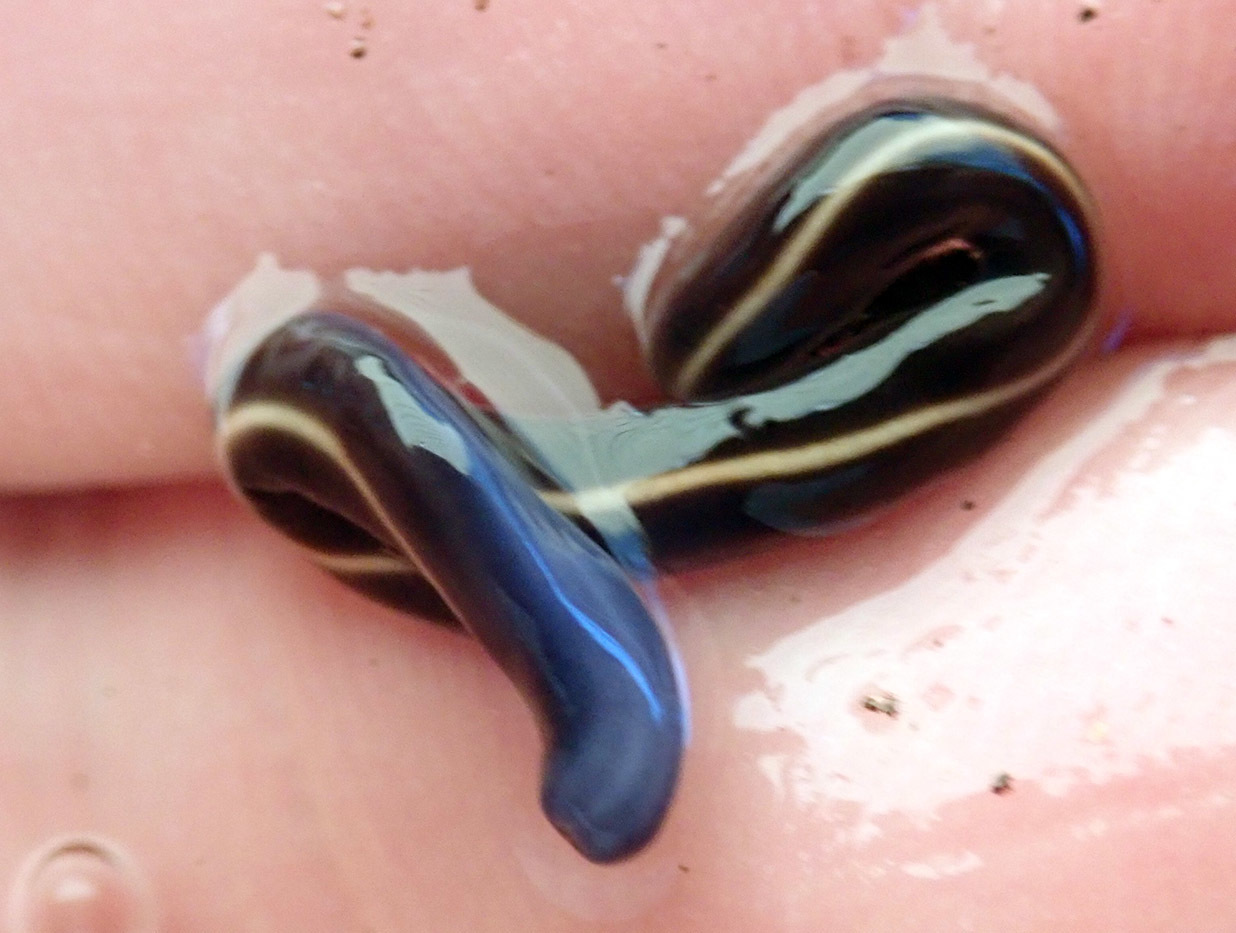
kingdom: Animalia
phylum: Platyhelminthes
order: Tricladida
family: Geoplanidae
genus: Caenoplana
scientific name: Caenoplana coerulea
